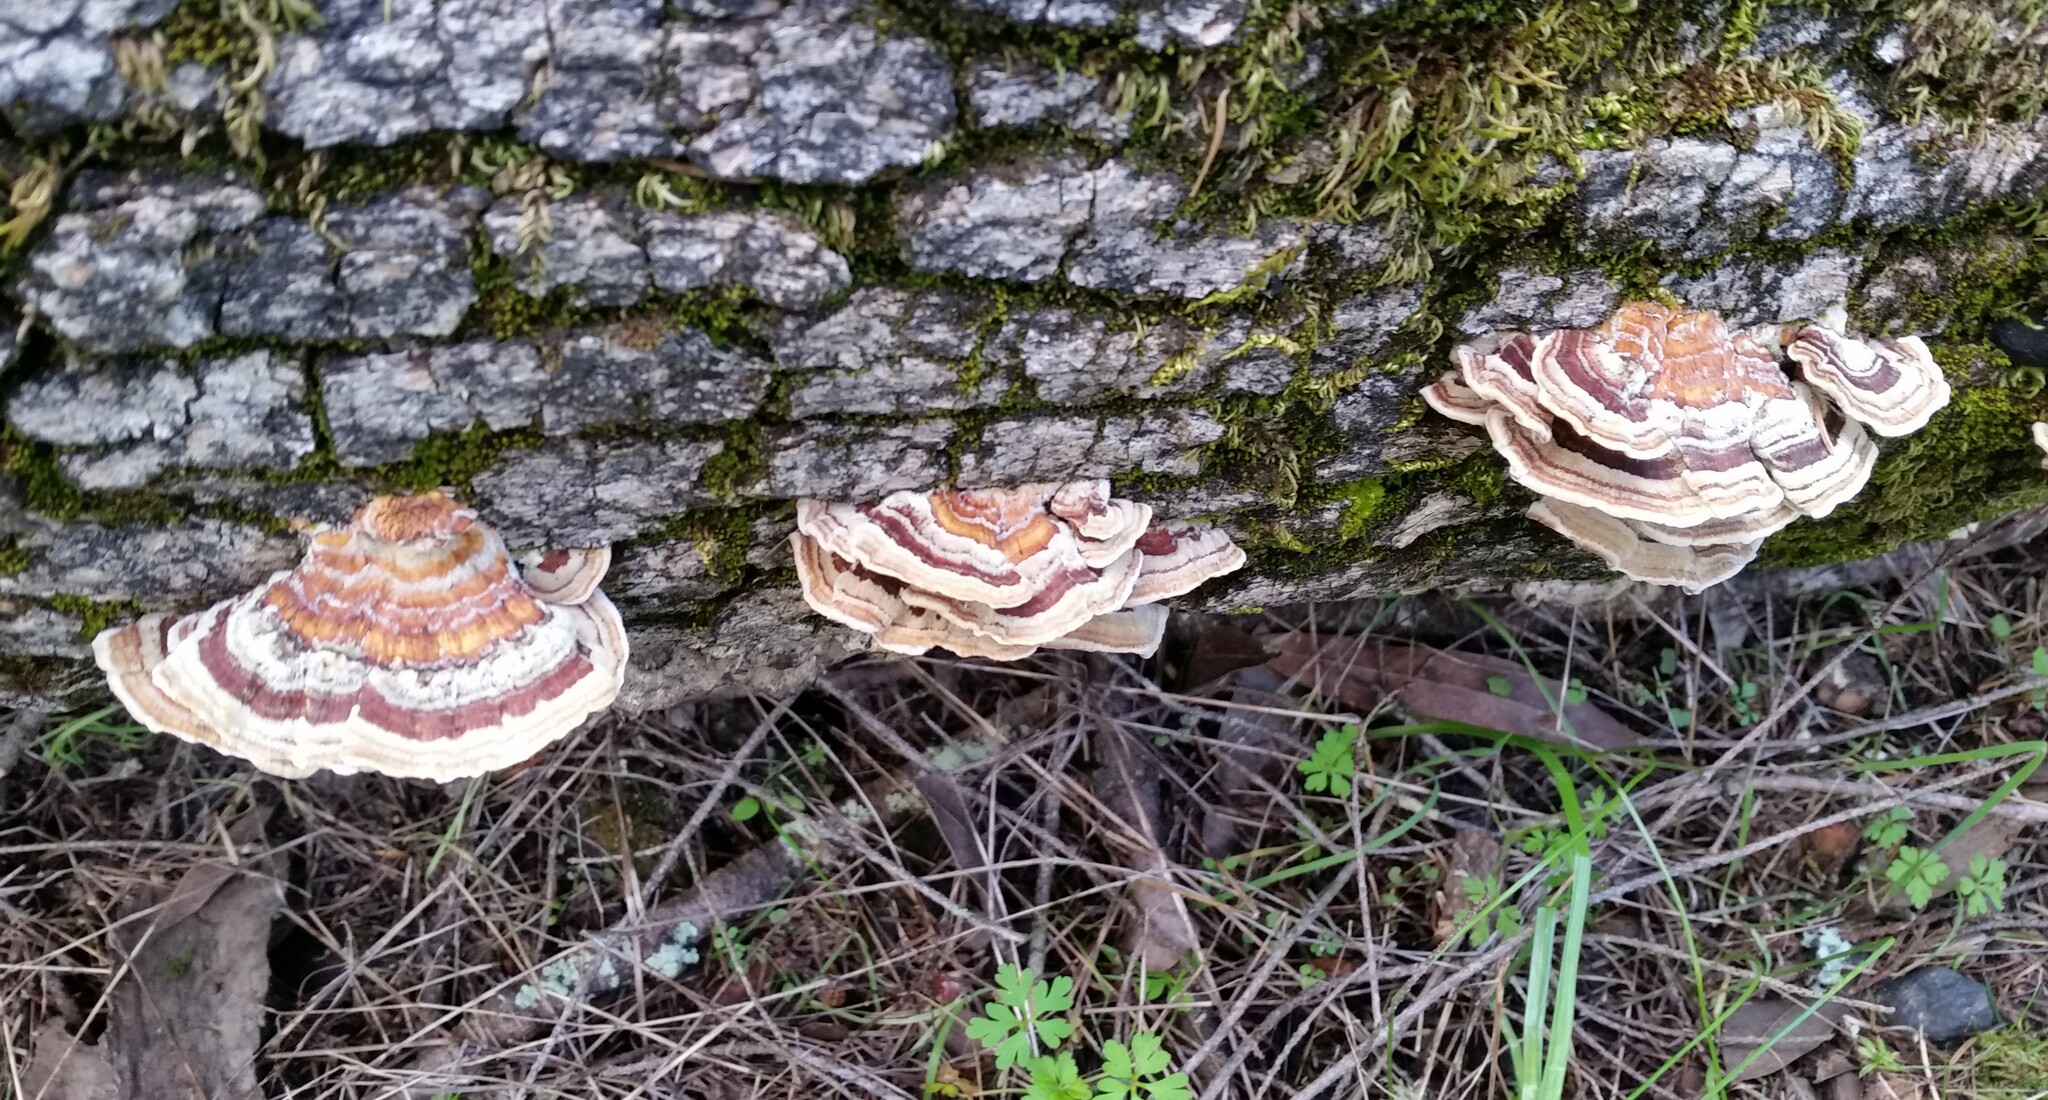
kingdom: Fungi
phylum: Basidiomycota
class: Agaricomycetes
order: Polyporales
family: Polyporaceae
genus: Trametes
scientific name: Trametes versicolor
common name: Turkeytail
